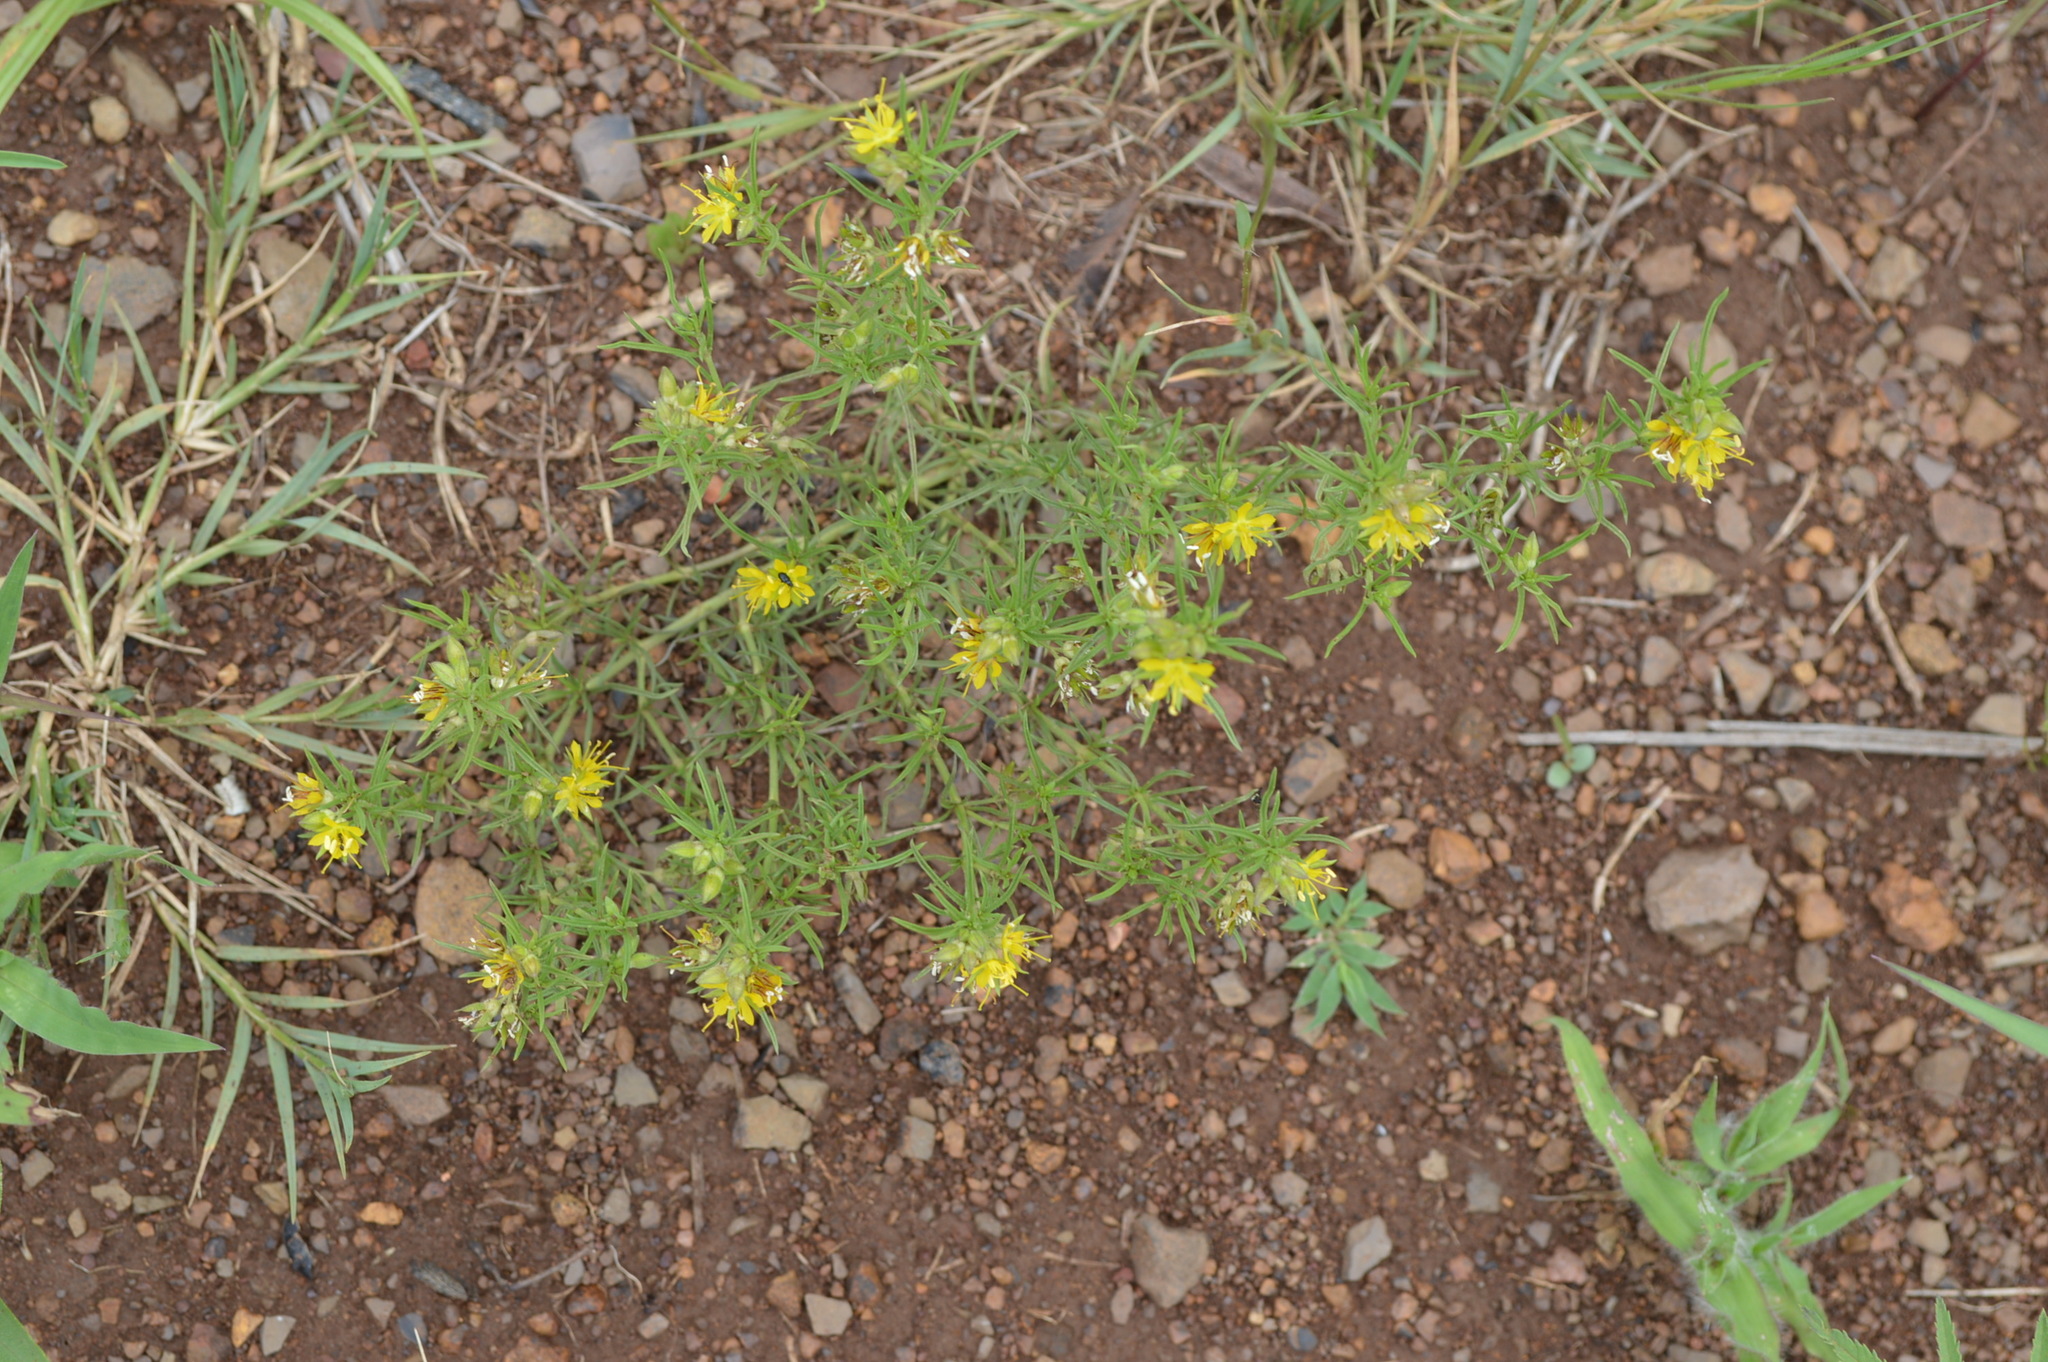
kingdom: Plantae
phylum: Tracheophyta
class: Magnoliopsida
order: Vahliales
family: Vahliaceae
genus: Vahlia
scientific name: Vahlia capensis
